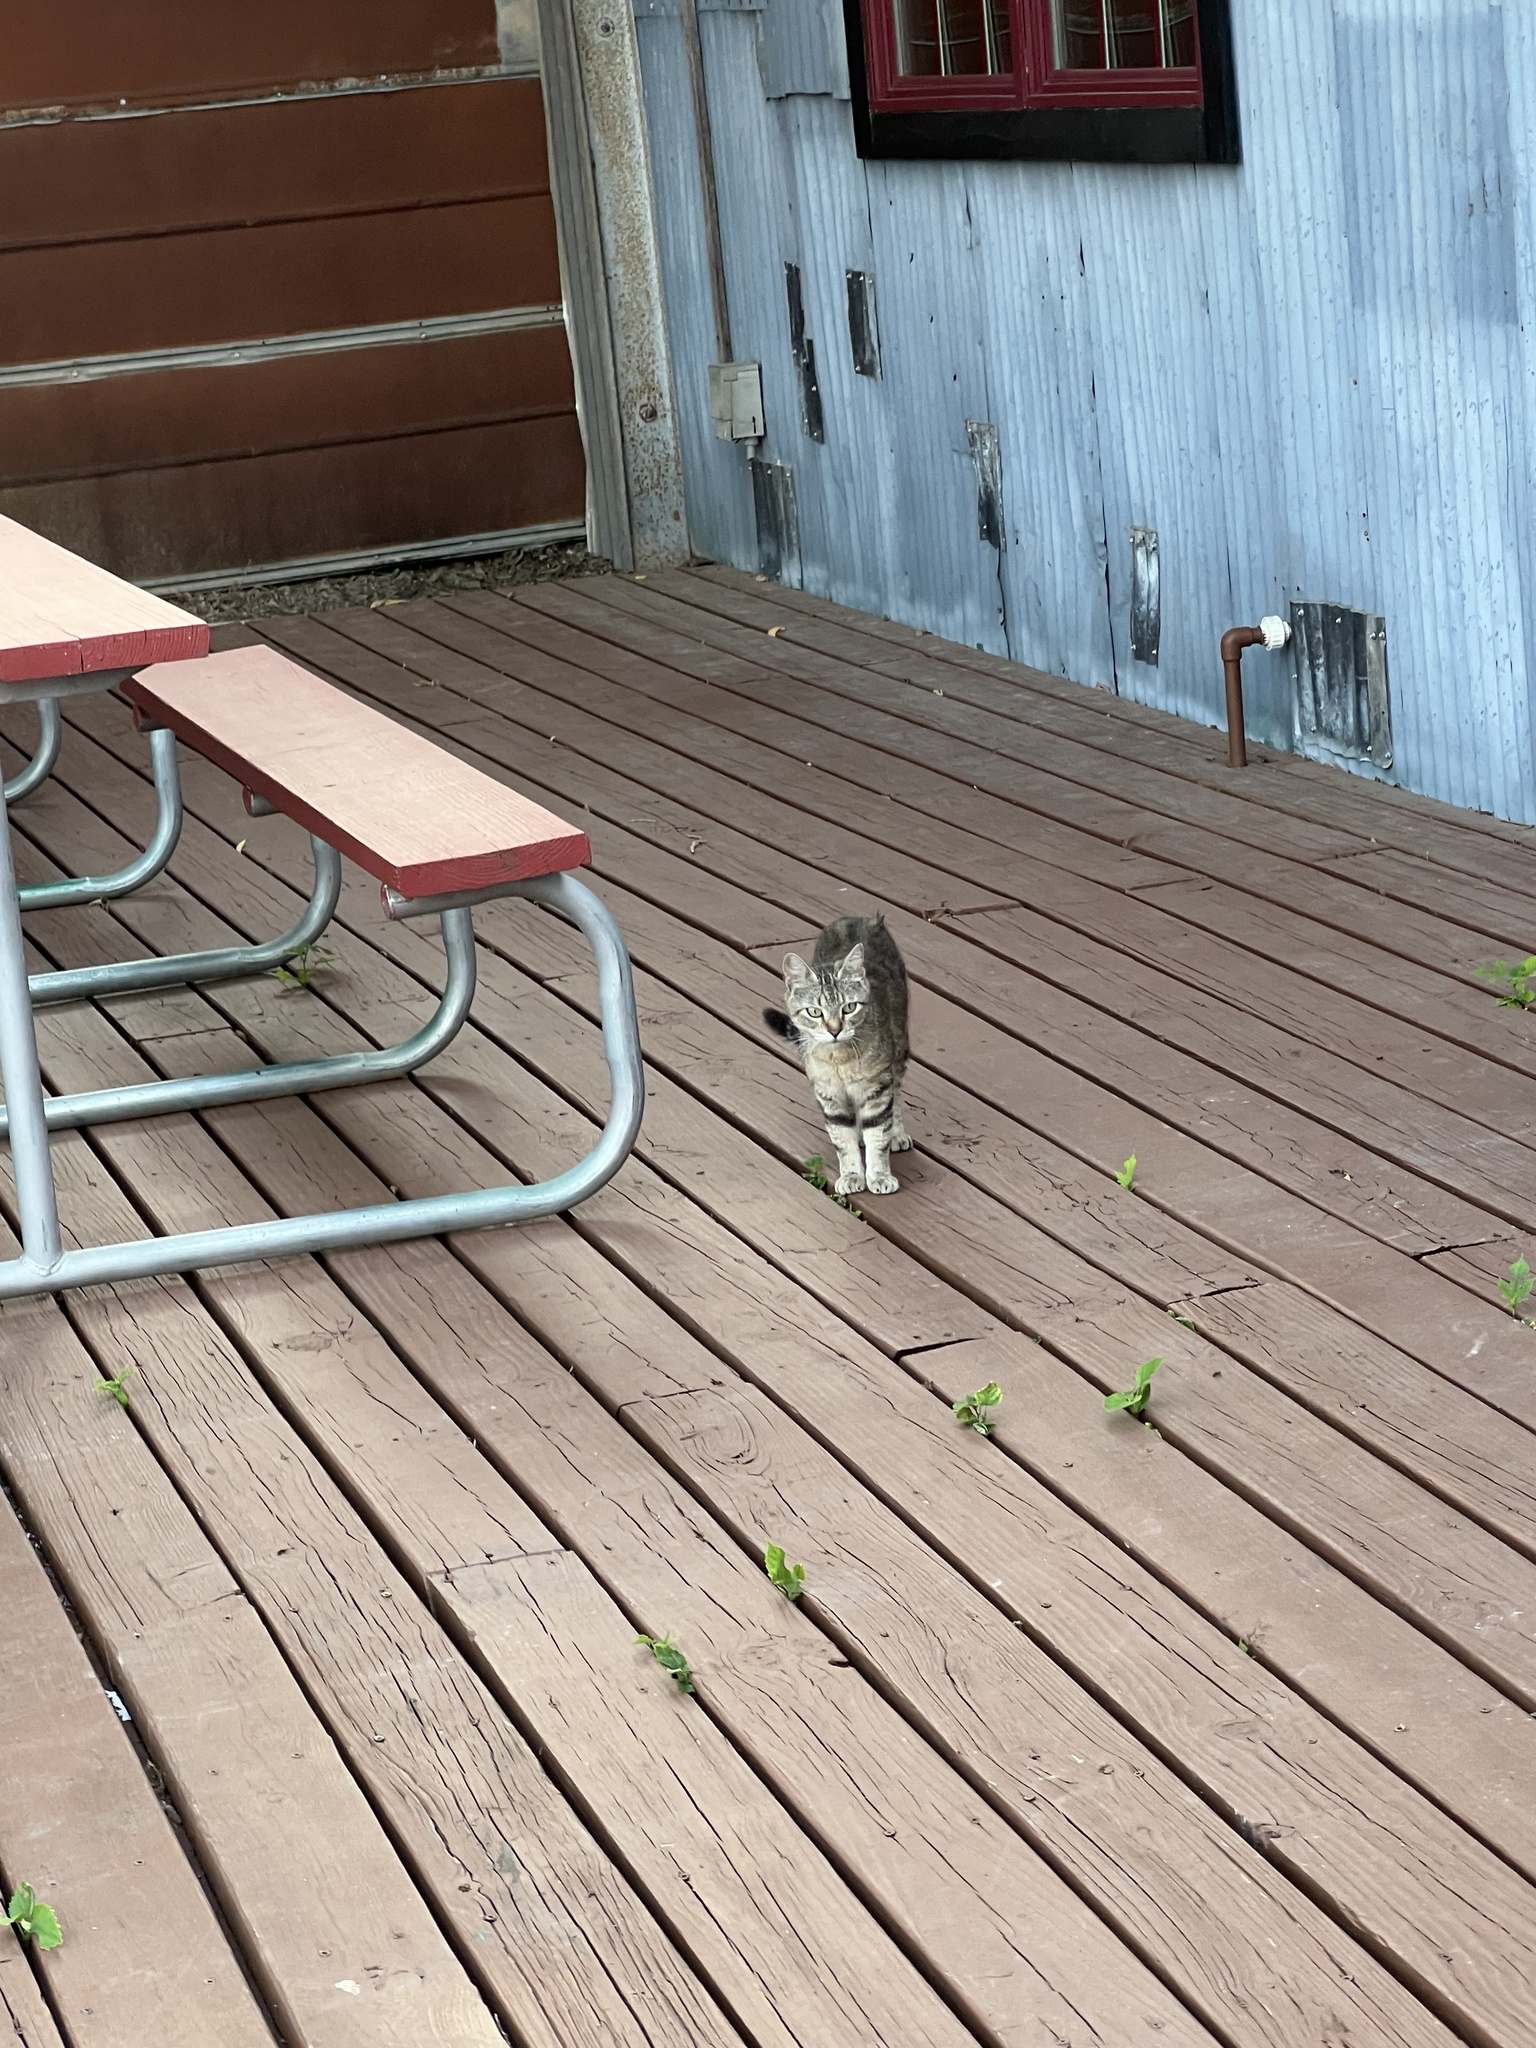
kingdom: Animalia
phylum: Chordata
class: Mammalia
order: Carnivora
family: Felidae
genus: Felis
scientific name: Felis catus
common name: Domestic cat
